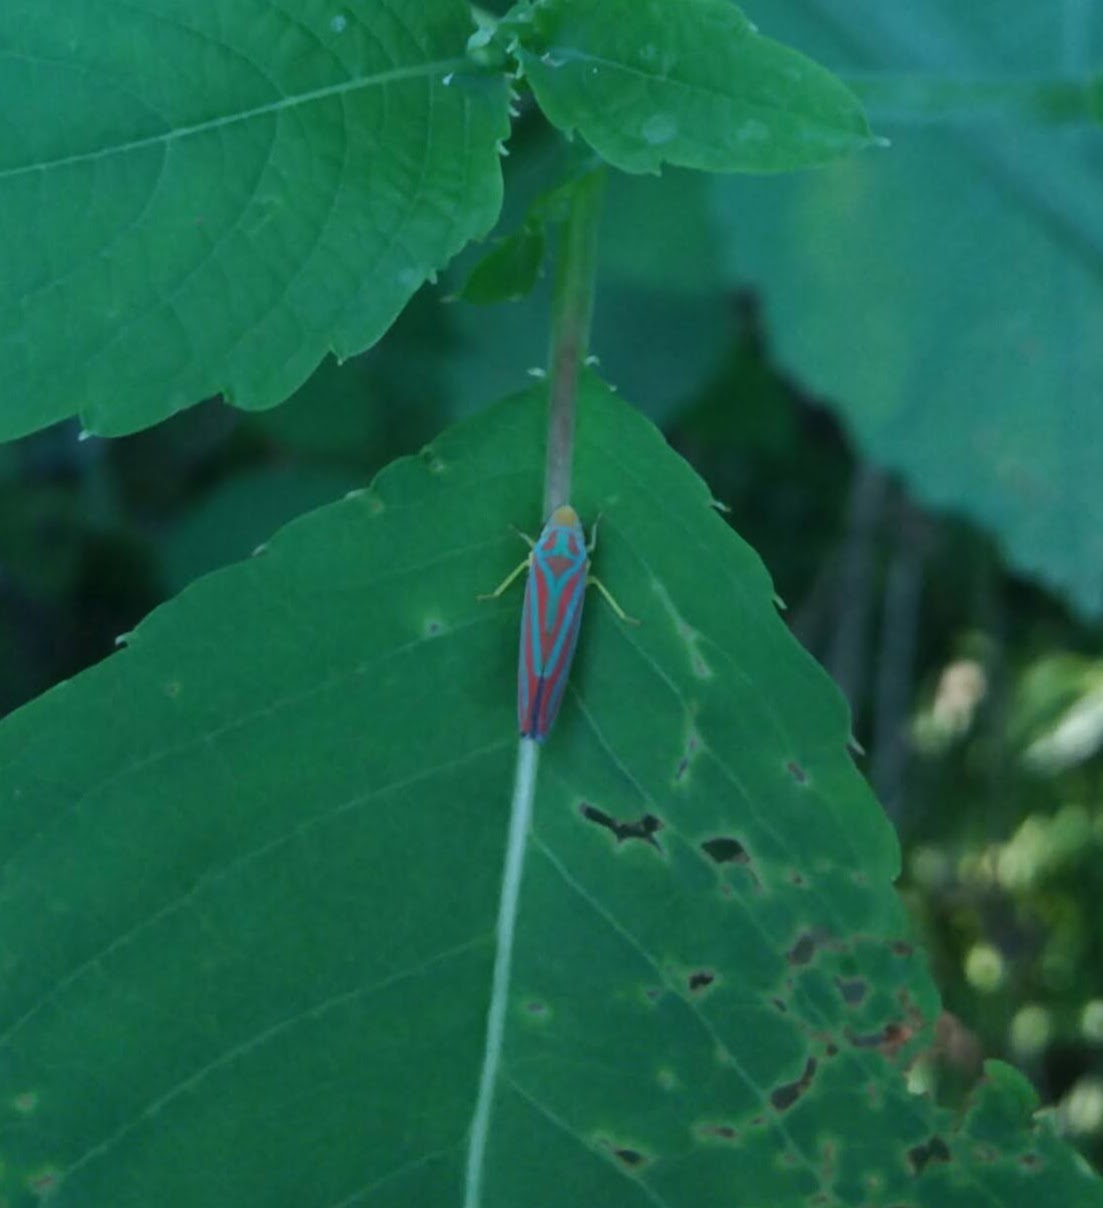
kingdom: Animalia
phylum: Arthropoda
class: Insecta
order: Hemiptera
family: Cicadellidae
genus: Graphocephala
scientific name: Graphocephala coccinea
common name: Candy-striped leafhopper
